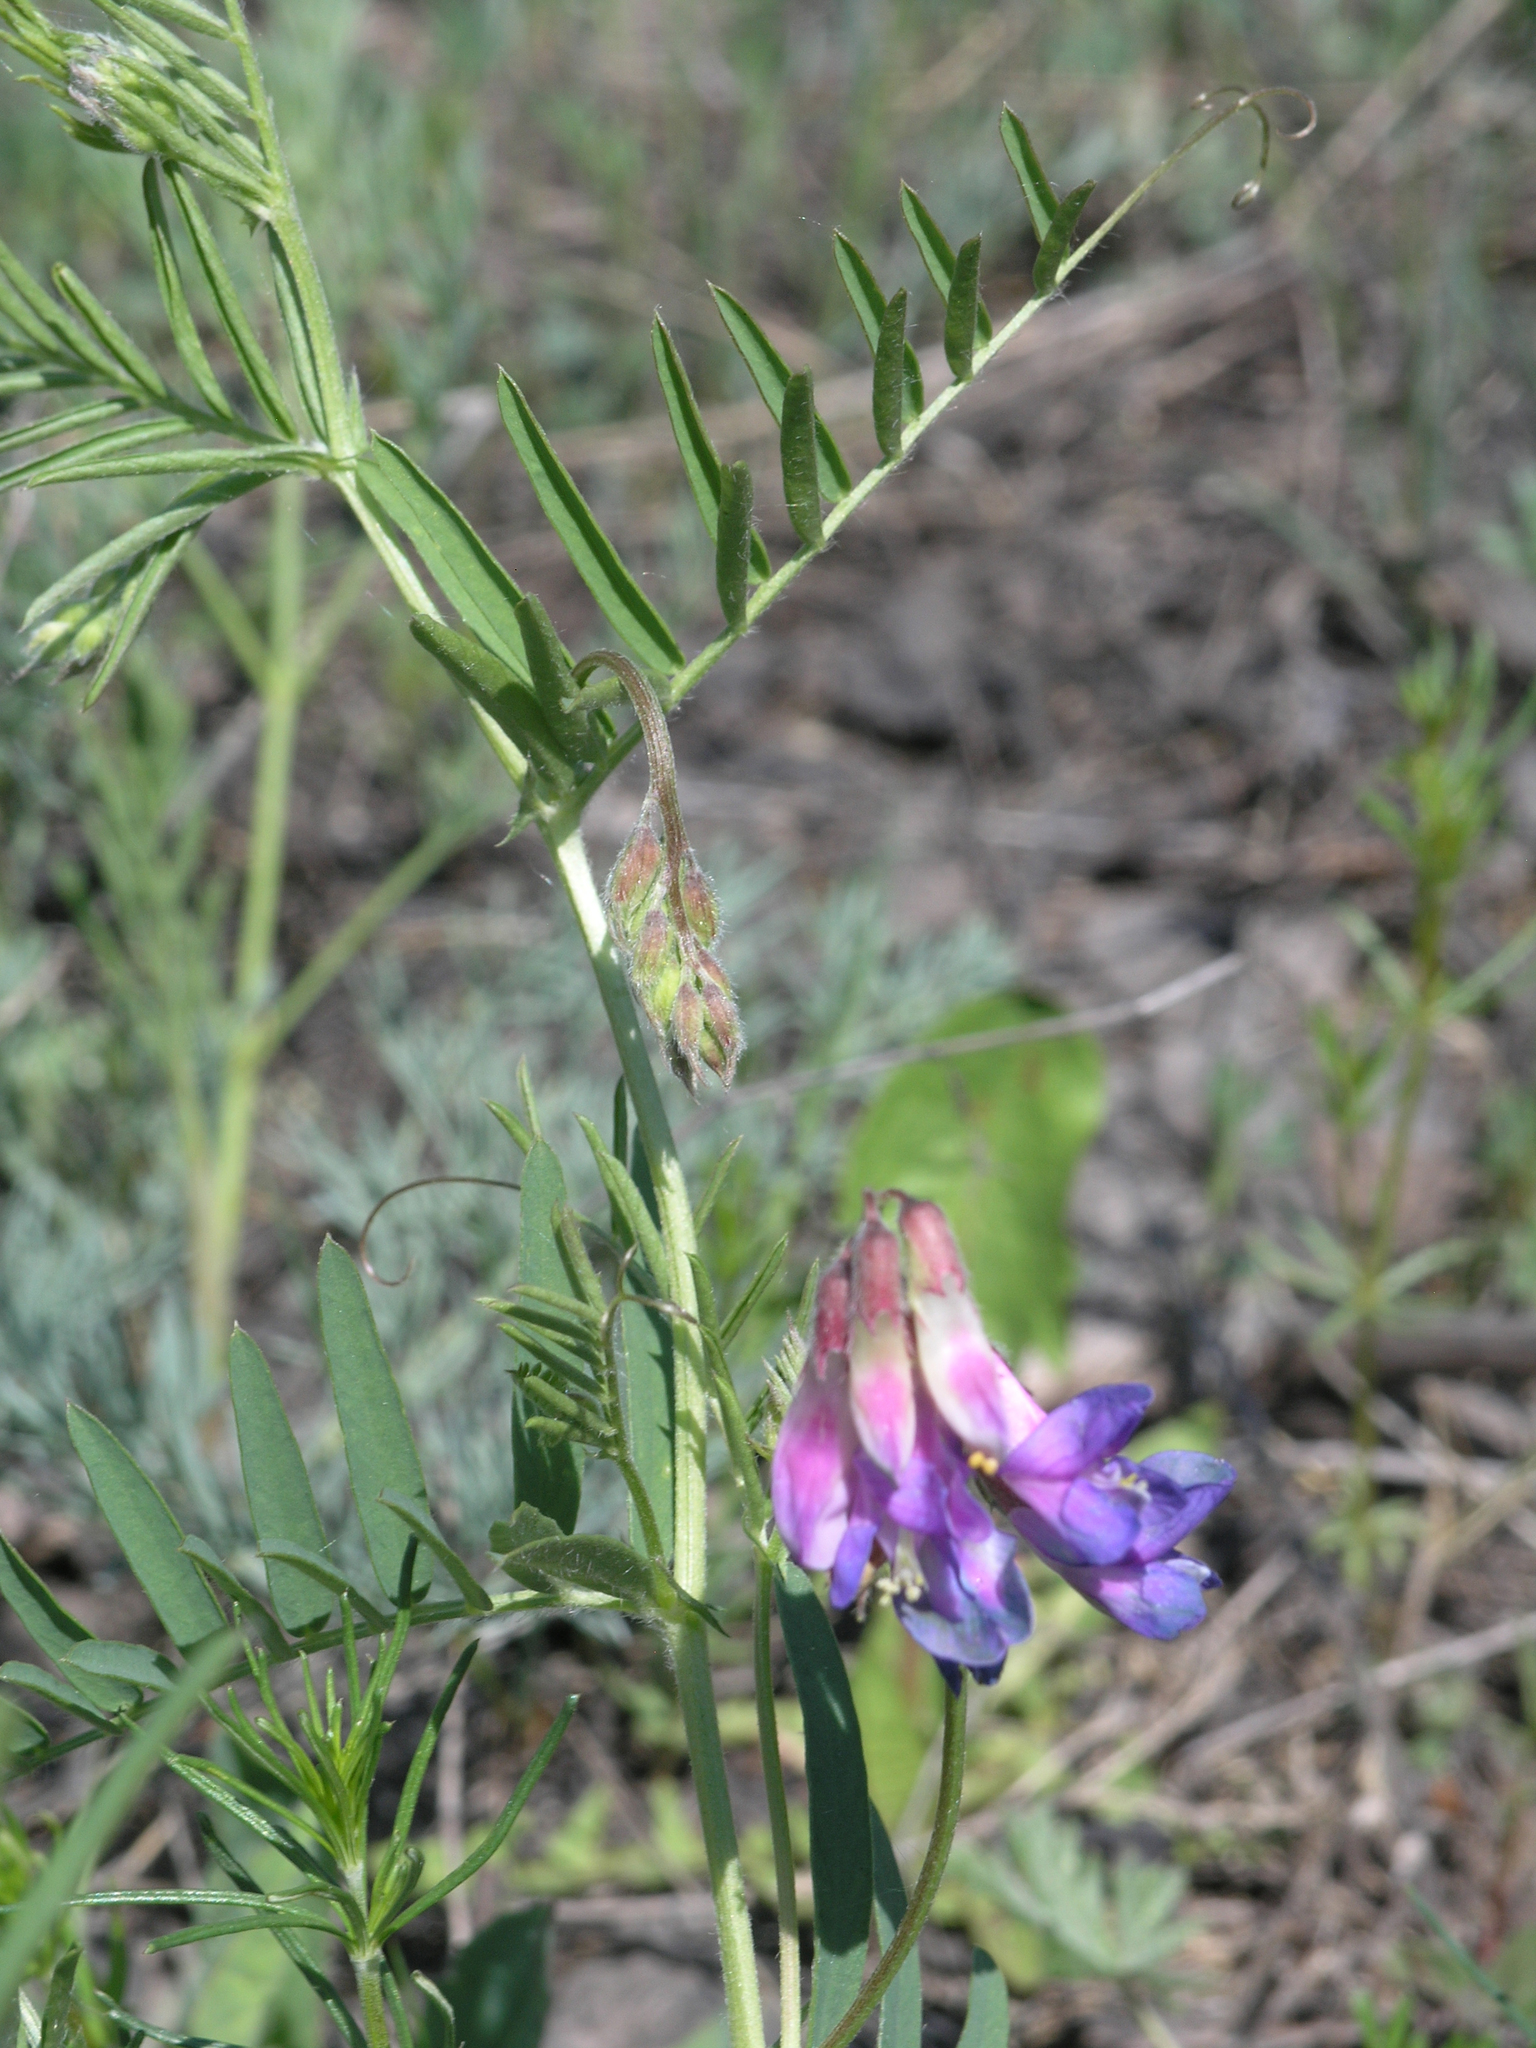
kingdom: Plantae
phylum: Tracheophyta
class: Magnoliopsida
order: Fabales
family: Fabaceae
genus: Vicia
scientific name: Vicia multicaulis
